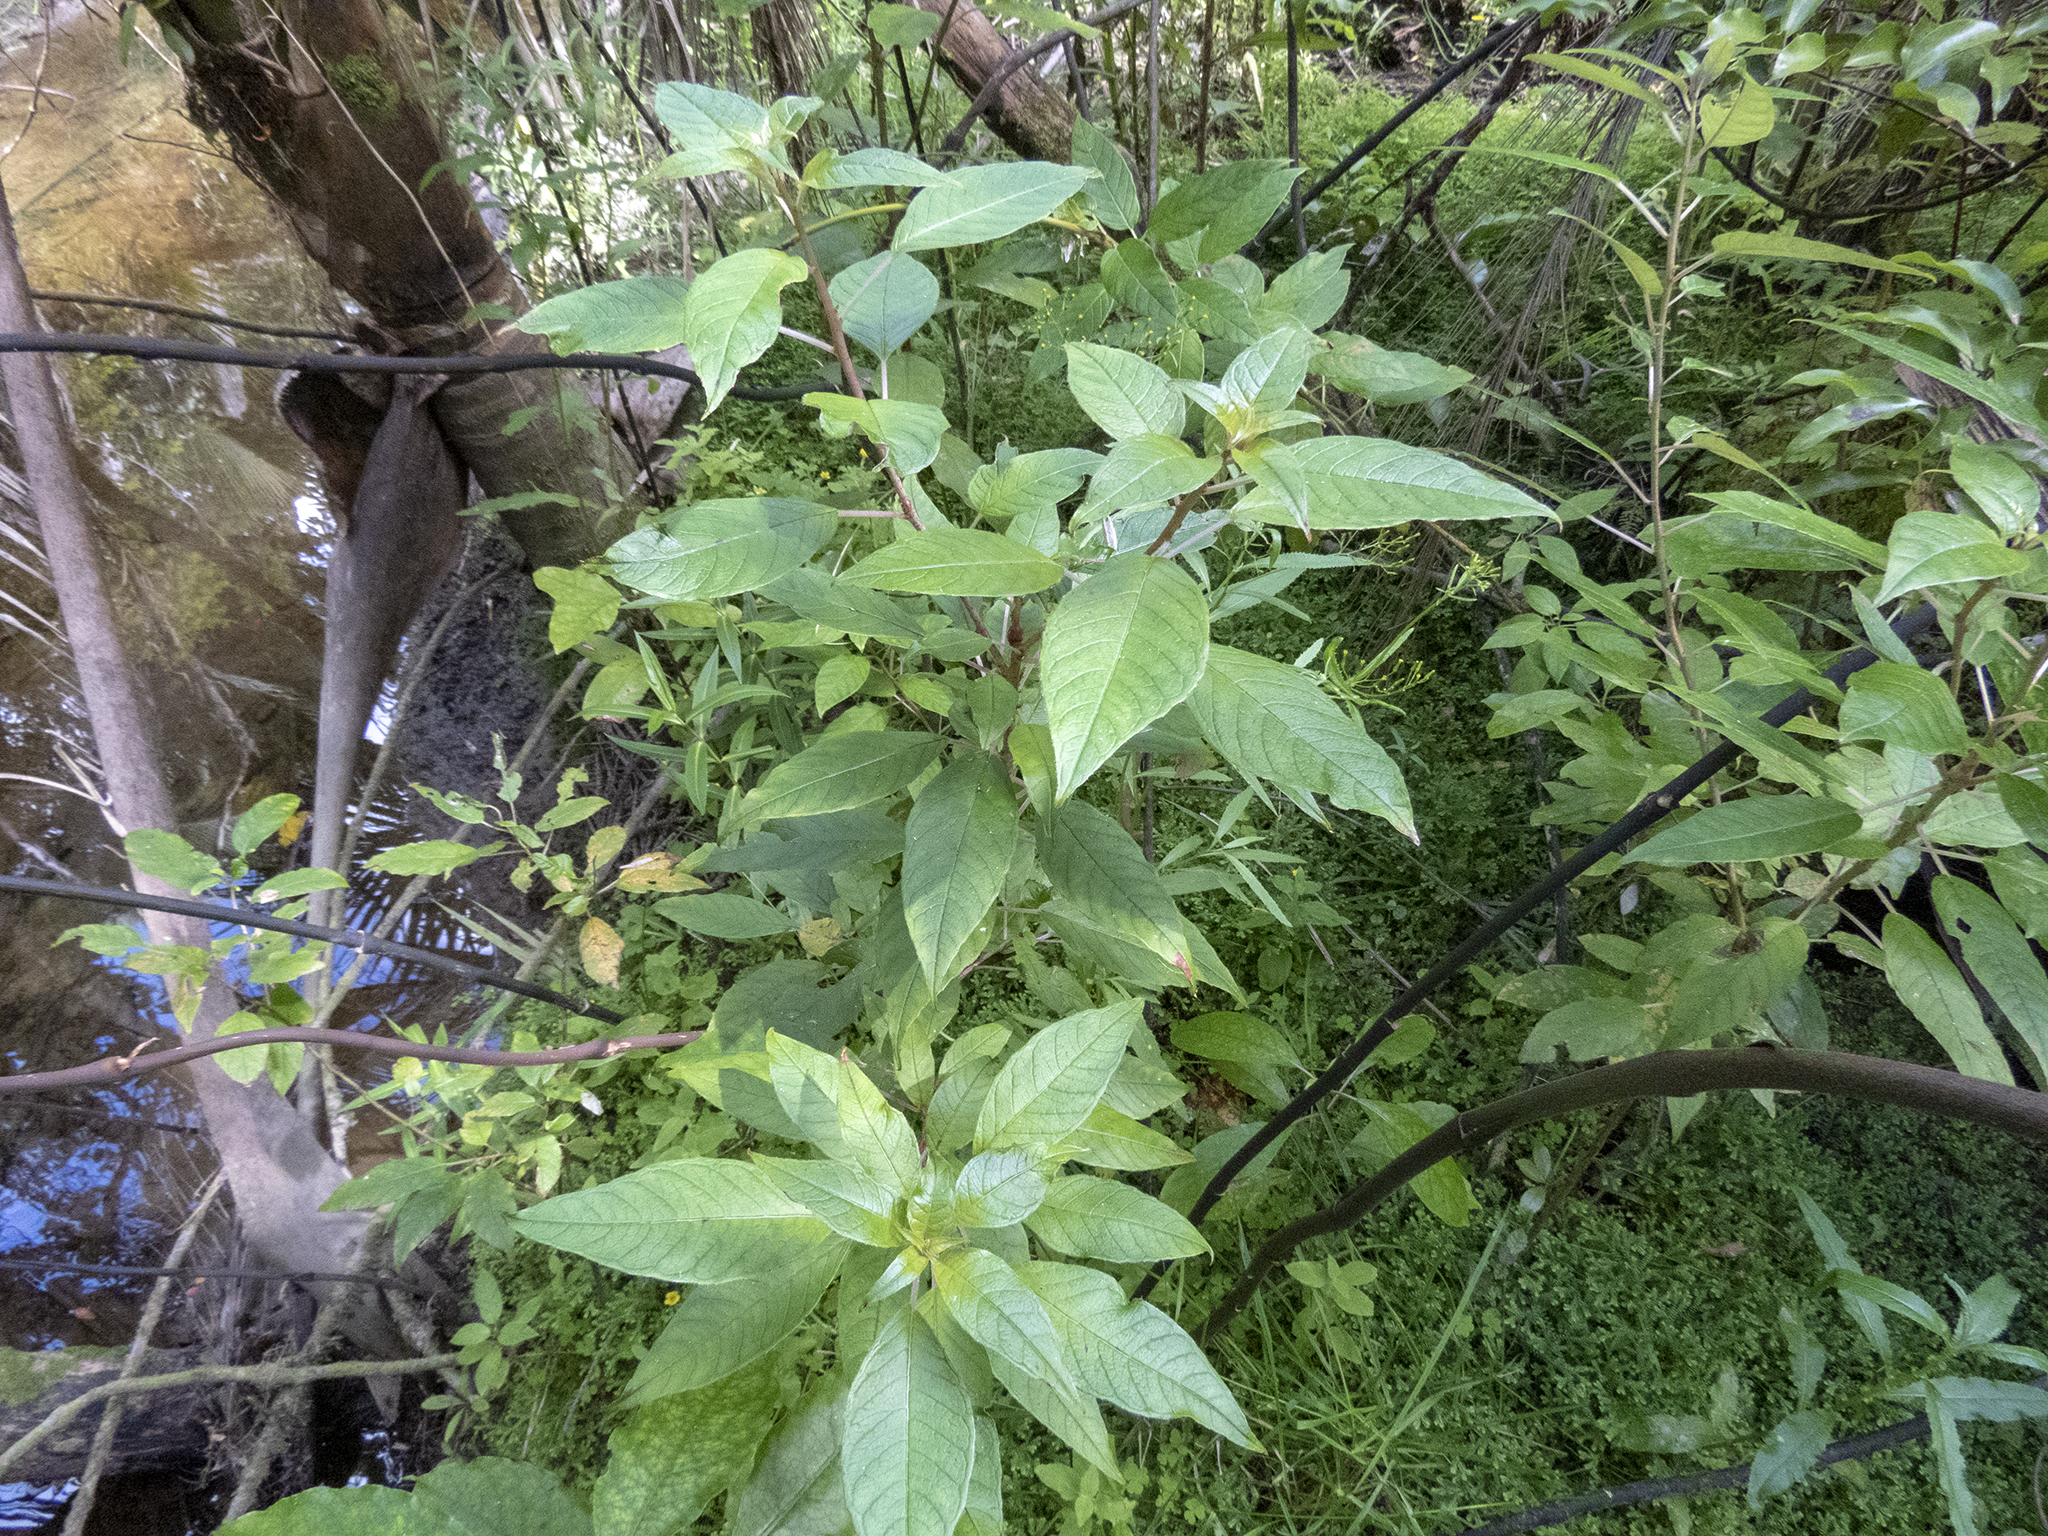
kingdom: Plantae
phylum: Tracheophyta
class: Magnoliopsida
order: Myrtales
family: Onagraceae
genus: Fuchsia
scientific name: Fuchsia excorticata
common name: Tree fuchsia
